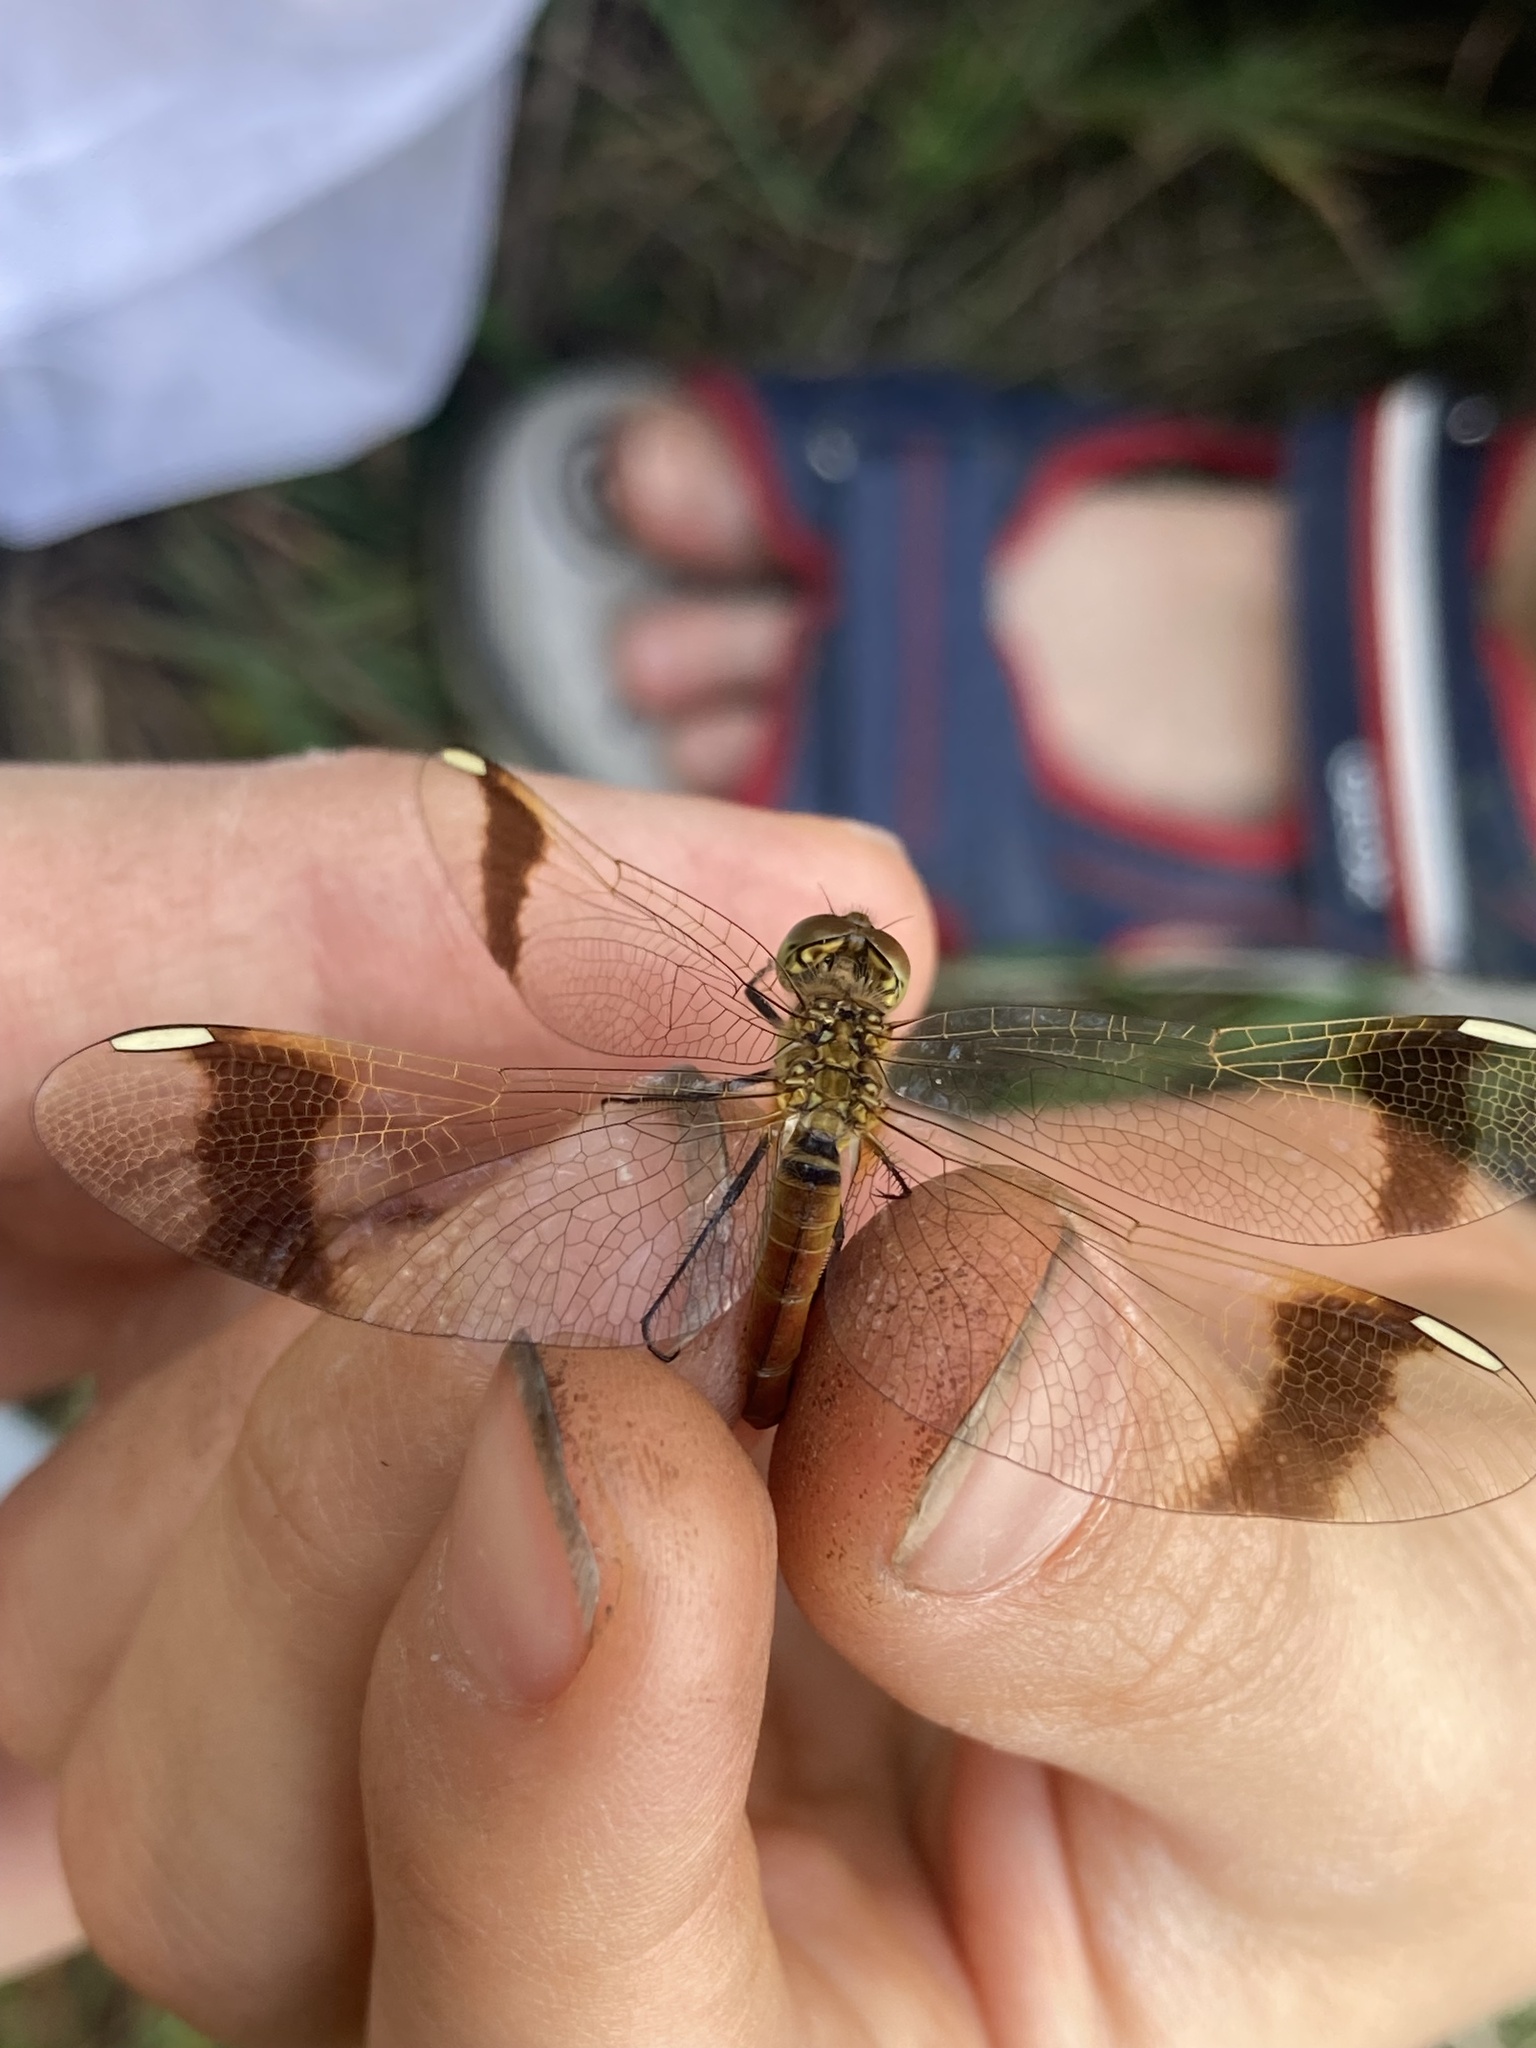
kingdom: Animalia
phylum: Arthropoda
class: Insecta
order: Odonata
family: Libellulidae
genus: Sympetrum
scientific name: Sympetrum pedemontanum
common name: Banded darter
